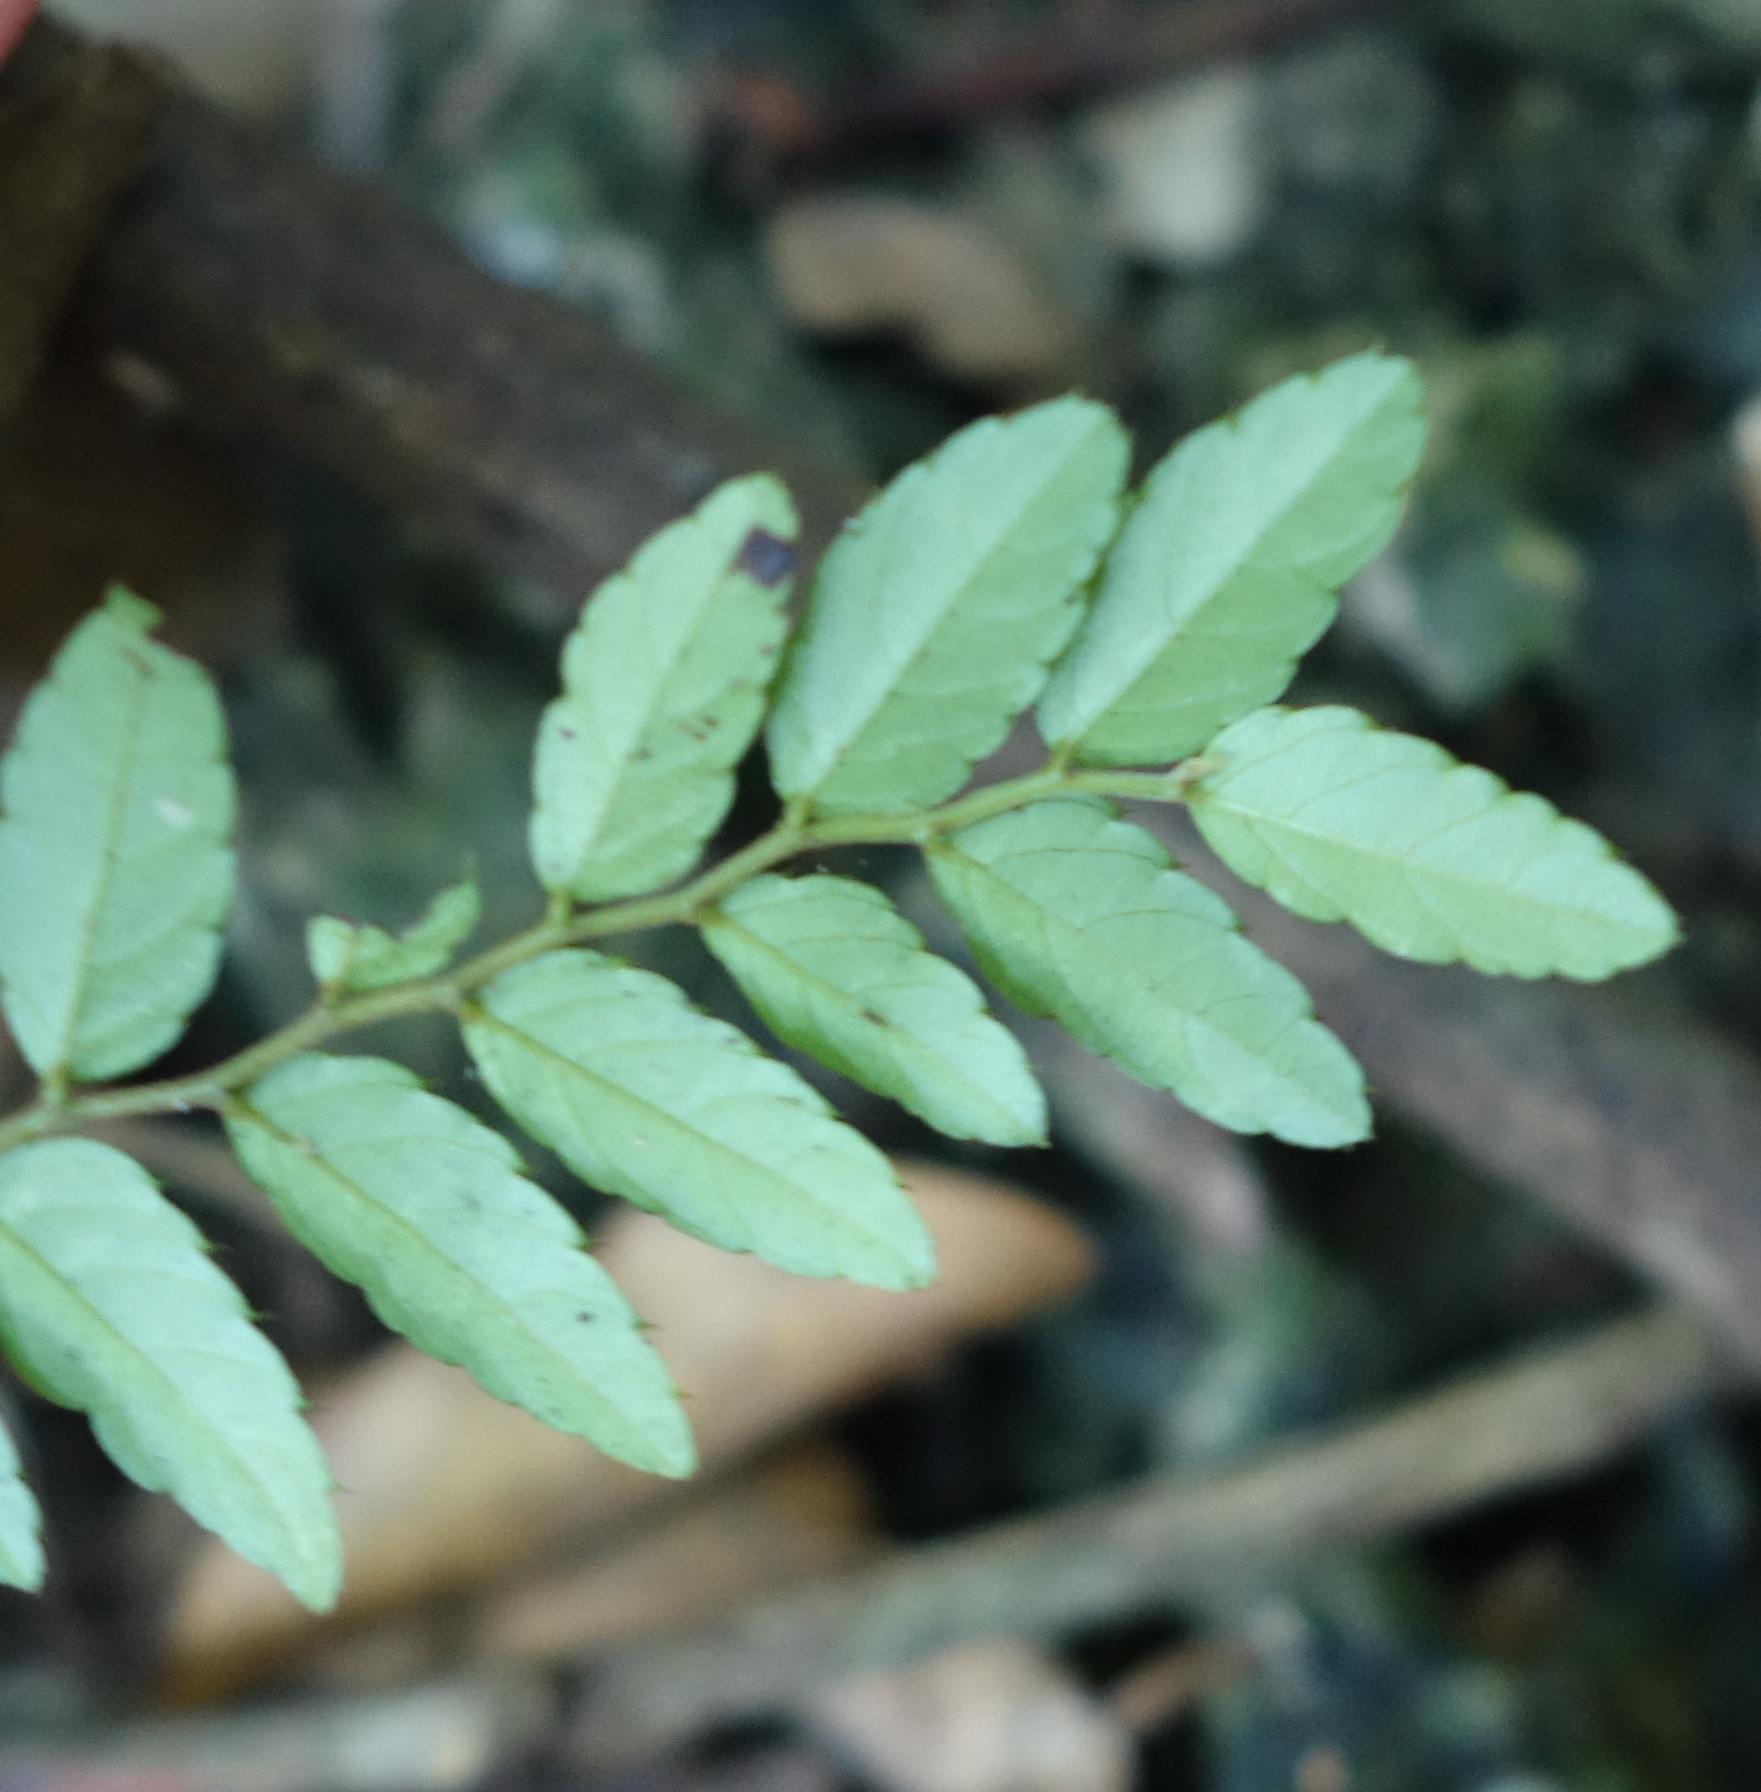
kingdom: Plantae
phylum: Tracheophyta
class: Magnoliopsida
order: Rosales
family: Rhamnaceae
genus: Ventilago
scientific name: Ventilago elegans
